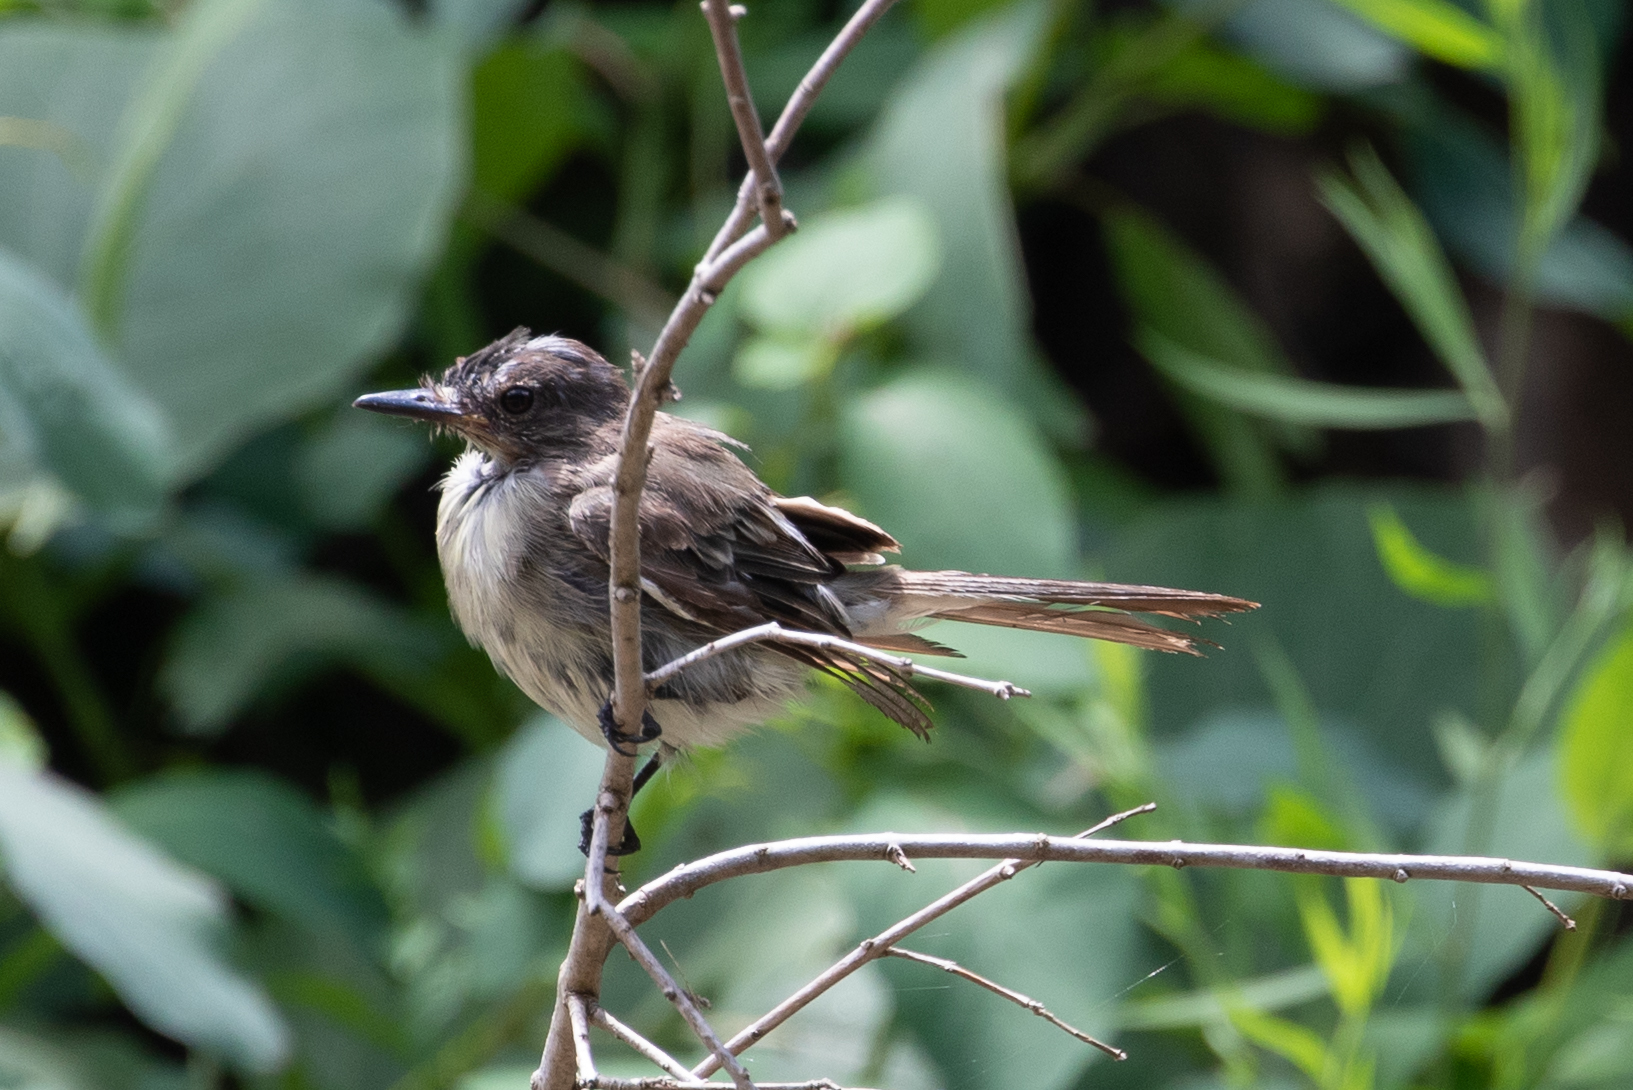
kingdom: Animalia
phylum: Chordata
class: Aves
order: Passeriformes
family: Tyrannidae
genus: Sayornis
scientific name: Sayornis phoebe
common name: Eastern phoebe
